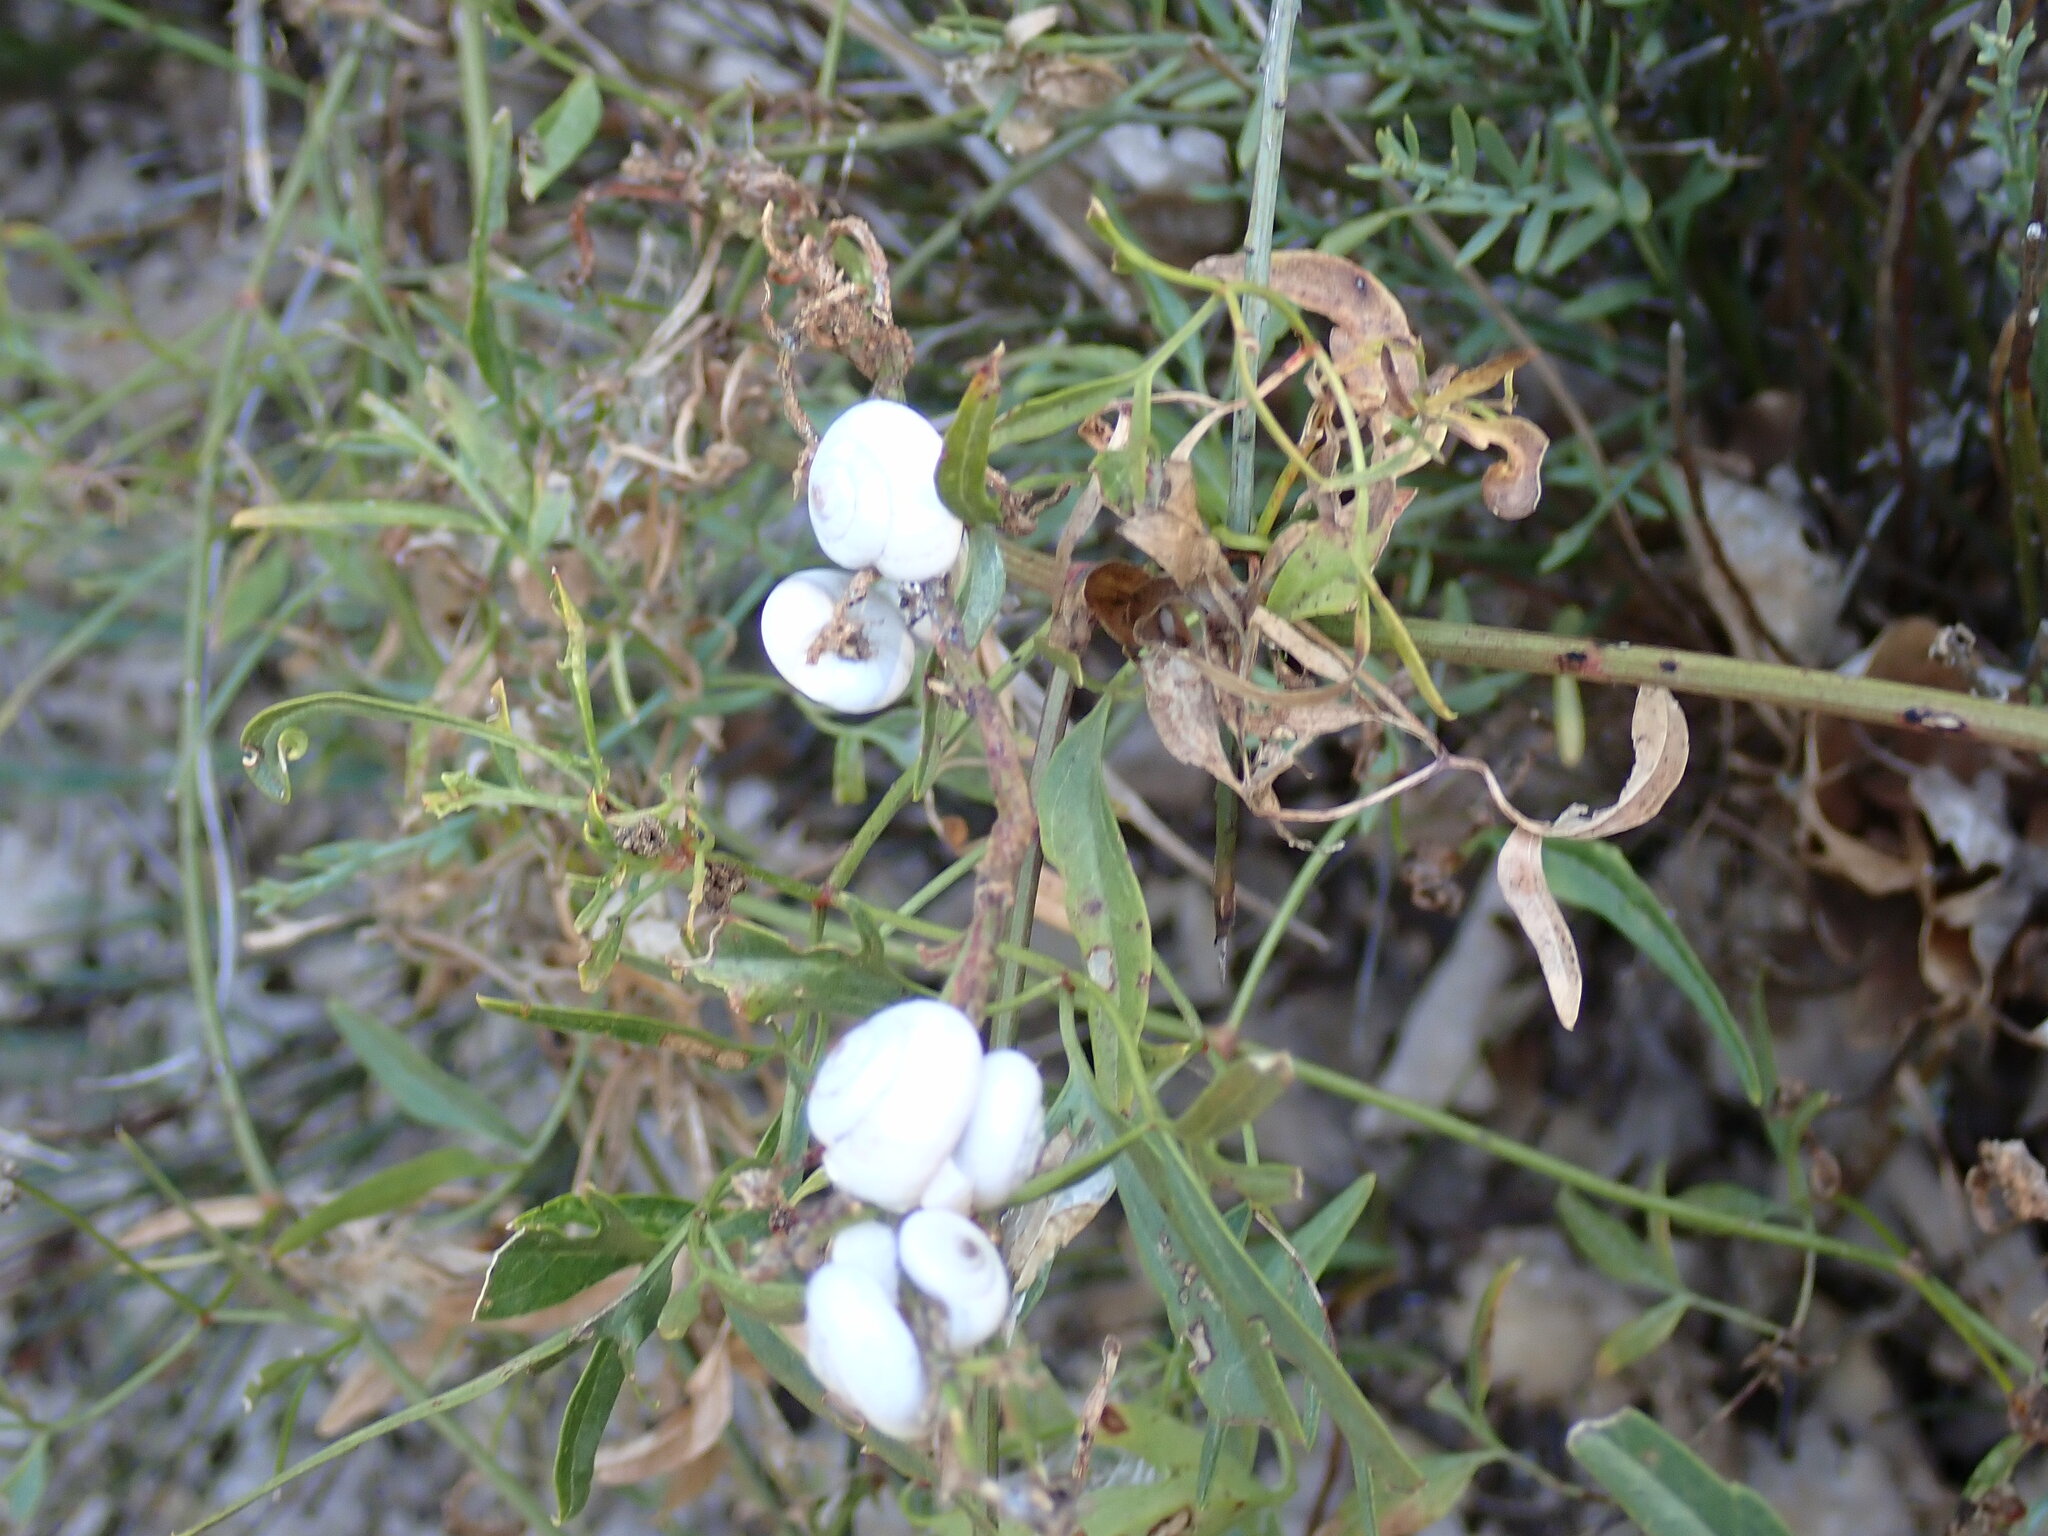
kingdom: Plantae
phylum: Tracheophyta
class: Magnoliopsida
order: Ranunculales
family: Ranunculaceae
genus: Clematis
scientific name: Clematis flammula
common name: Virgin's-bower
